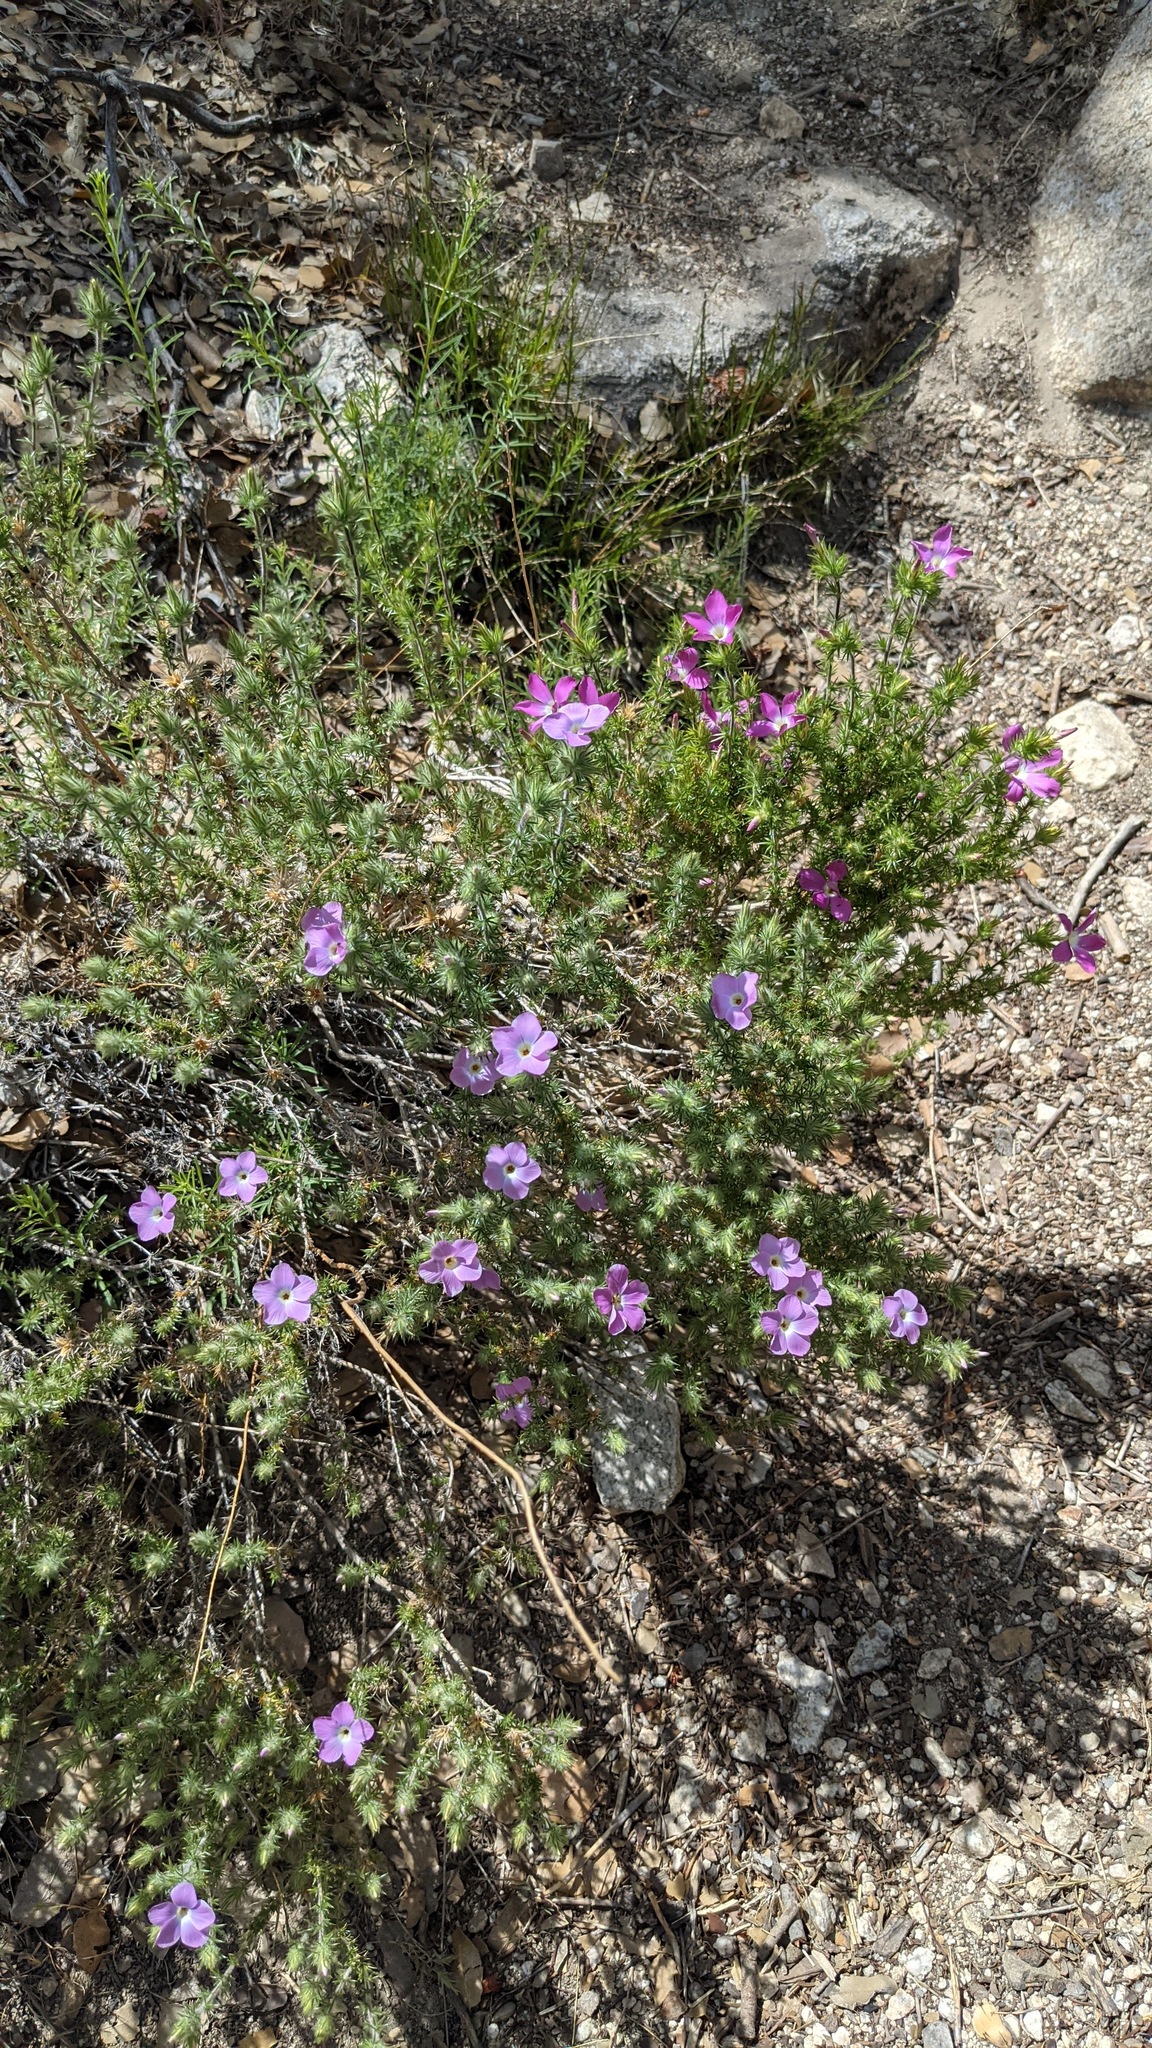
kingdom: Plantae
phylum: Tracheophyta
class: Magnoliopsida
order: Ericales
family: Polemoniaceae
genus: Linanthus
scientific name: Linanthus californicus
